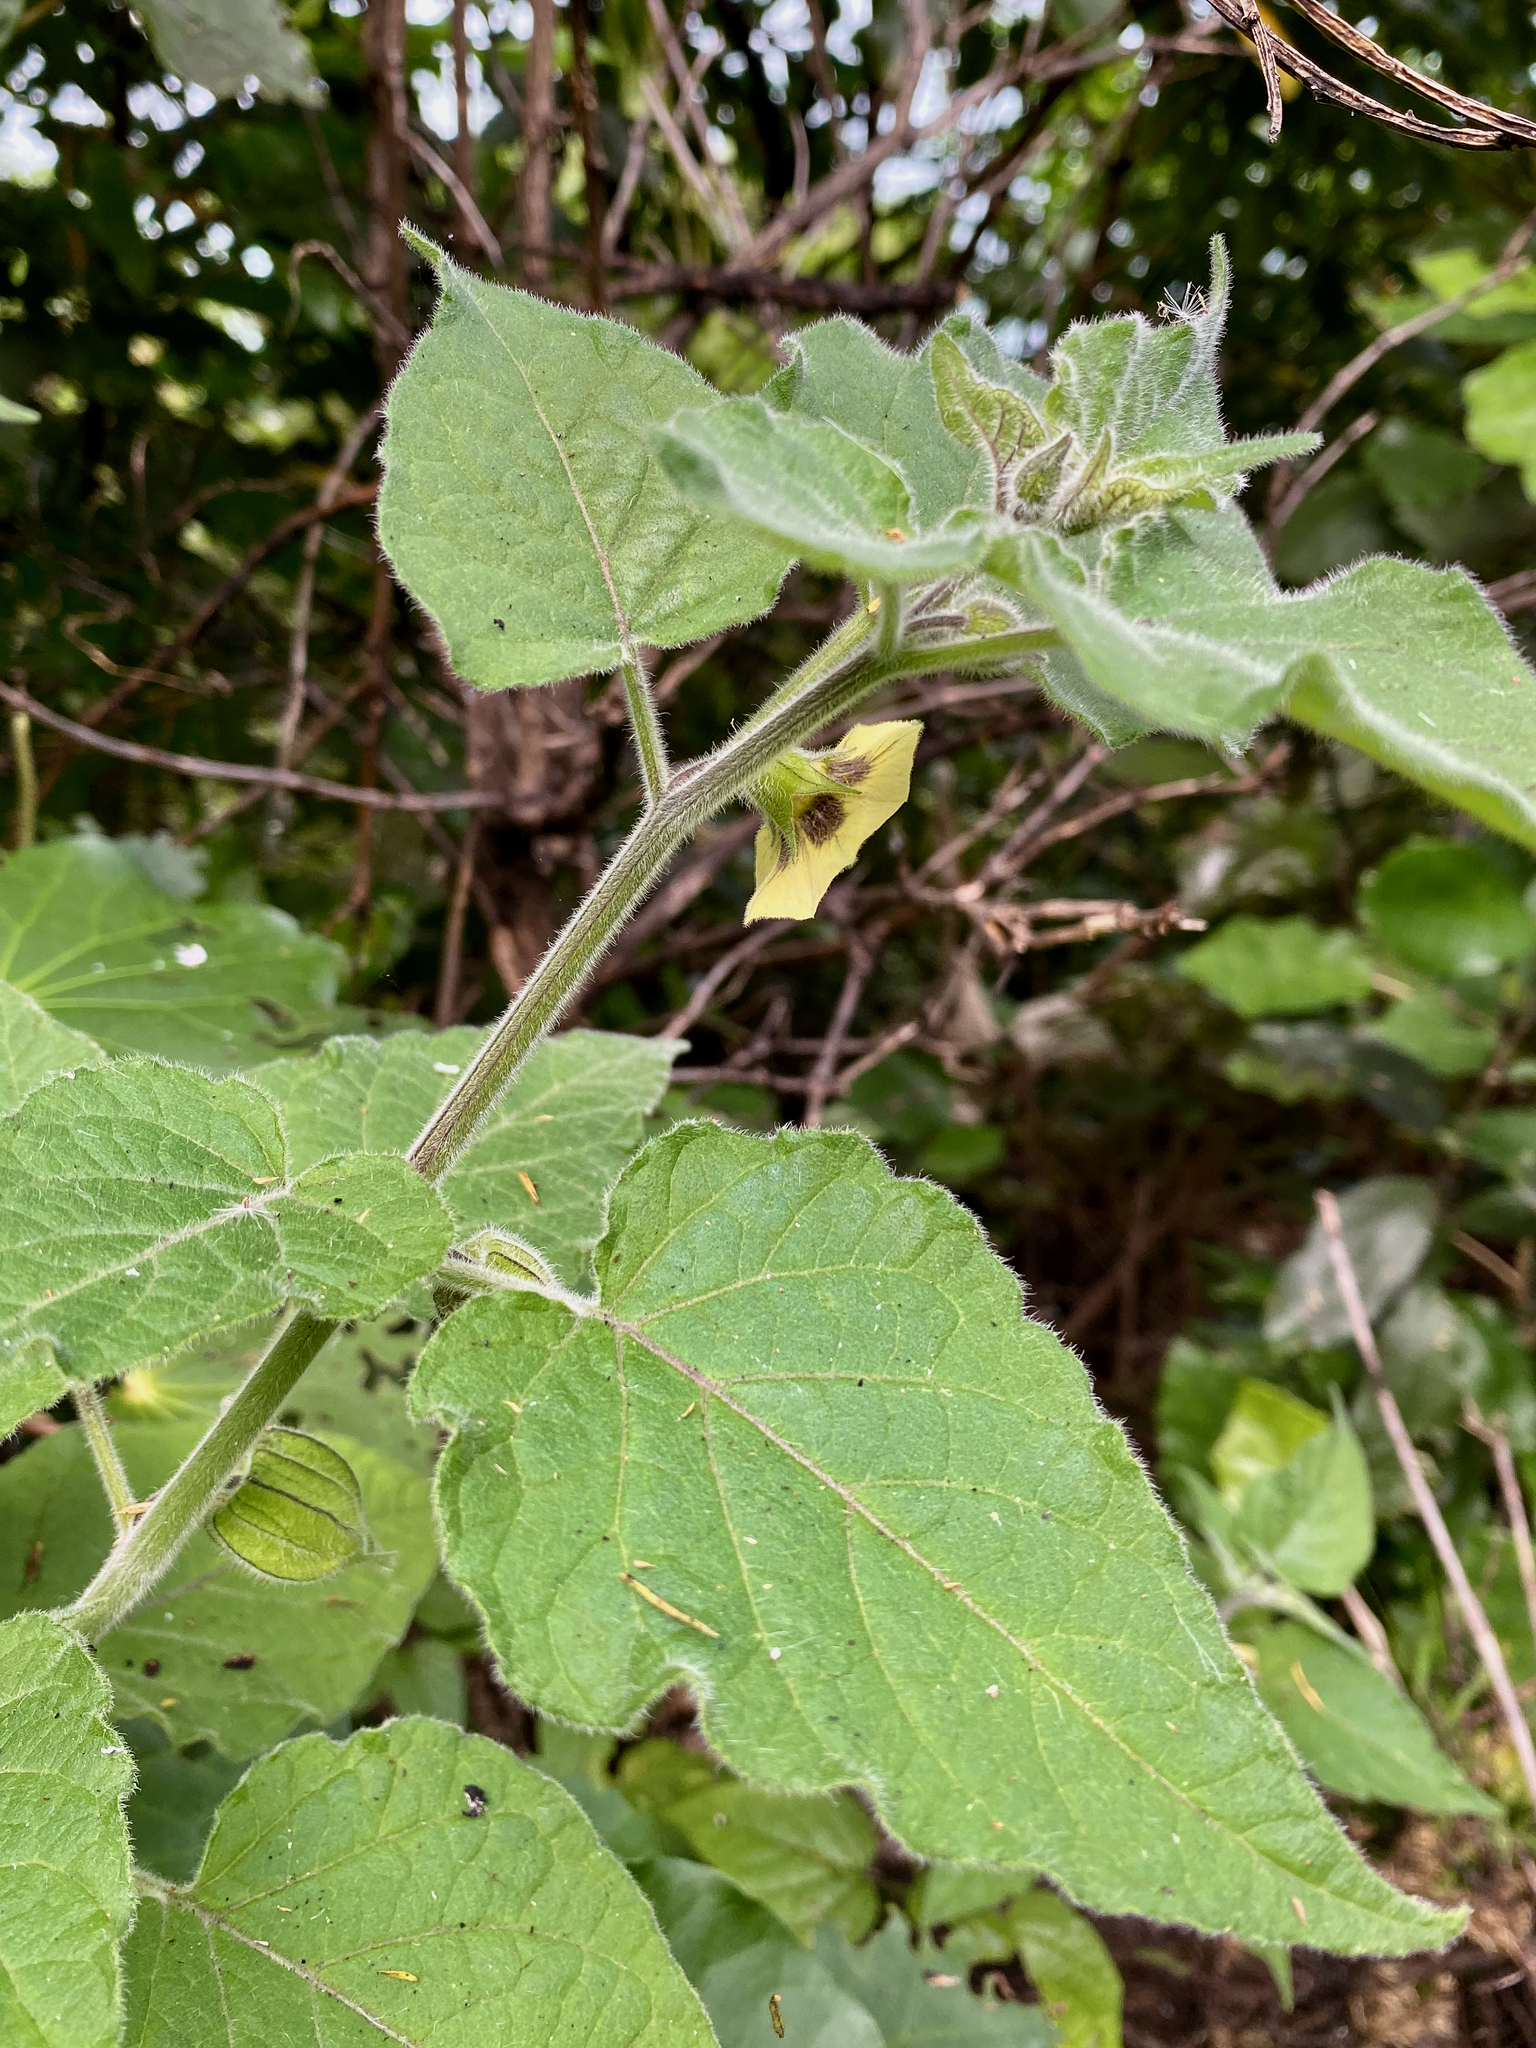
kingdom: Plantae
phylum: Tracheophyta
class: Magnoliopsida
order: Solanales
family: Solanaceae
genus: Physalis
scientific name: Physalis peruviana
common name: Cape-gooseberry
